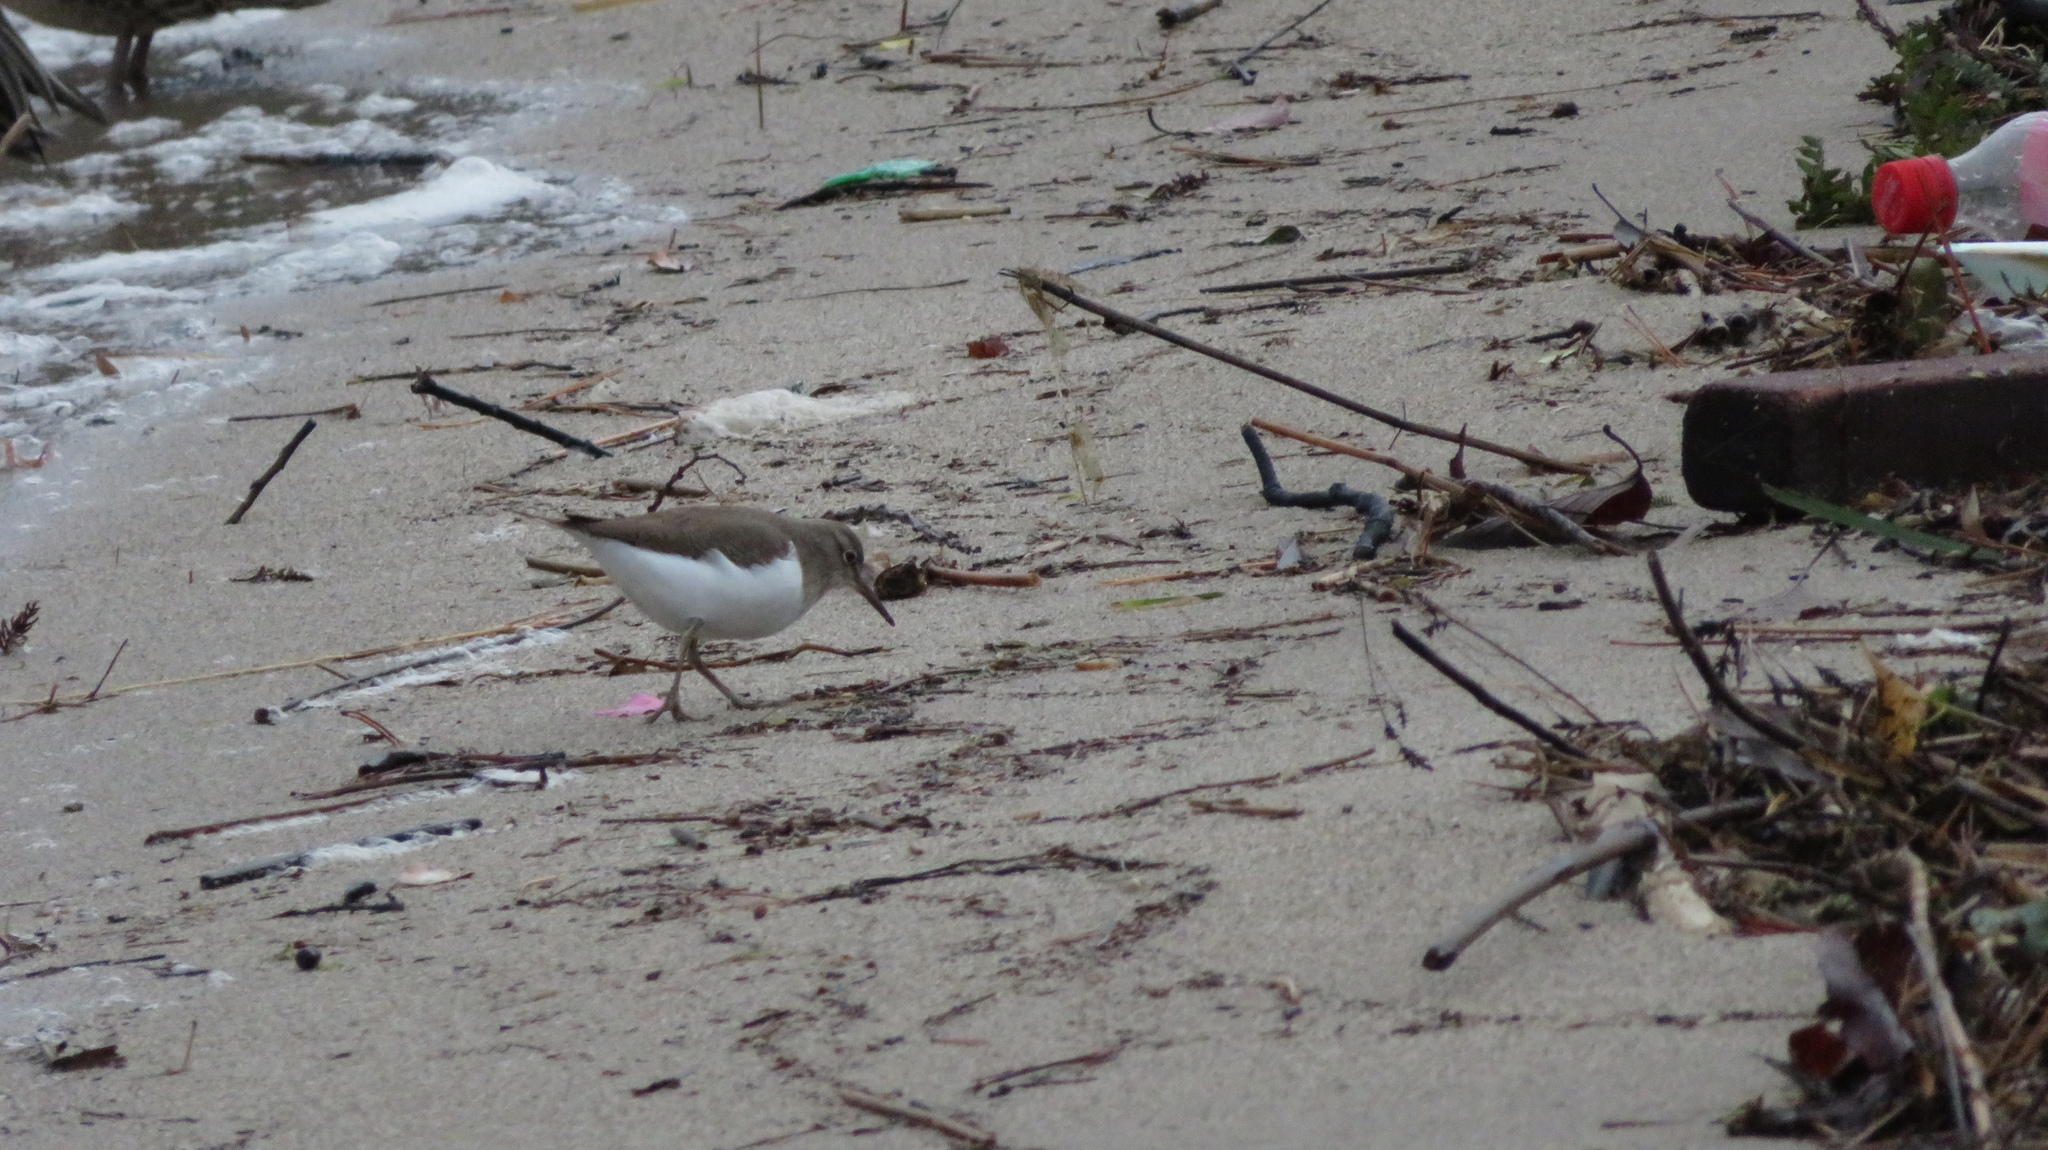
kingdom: Animalia
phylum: Chordata
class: Aves
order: Charadriiformes
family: Scolopacidae
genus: Actitis
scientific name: Actitis hypoleucos
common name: Common sandpiper
